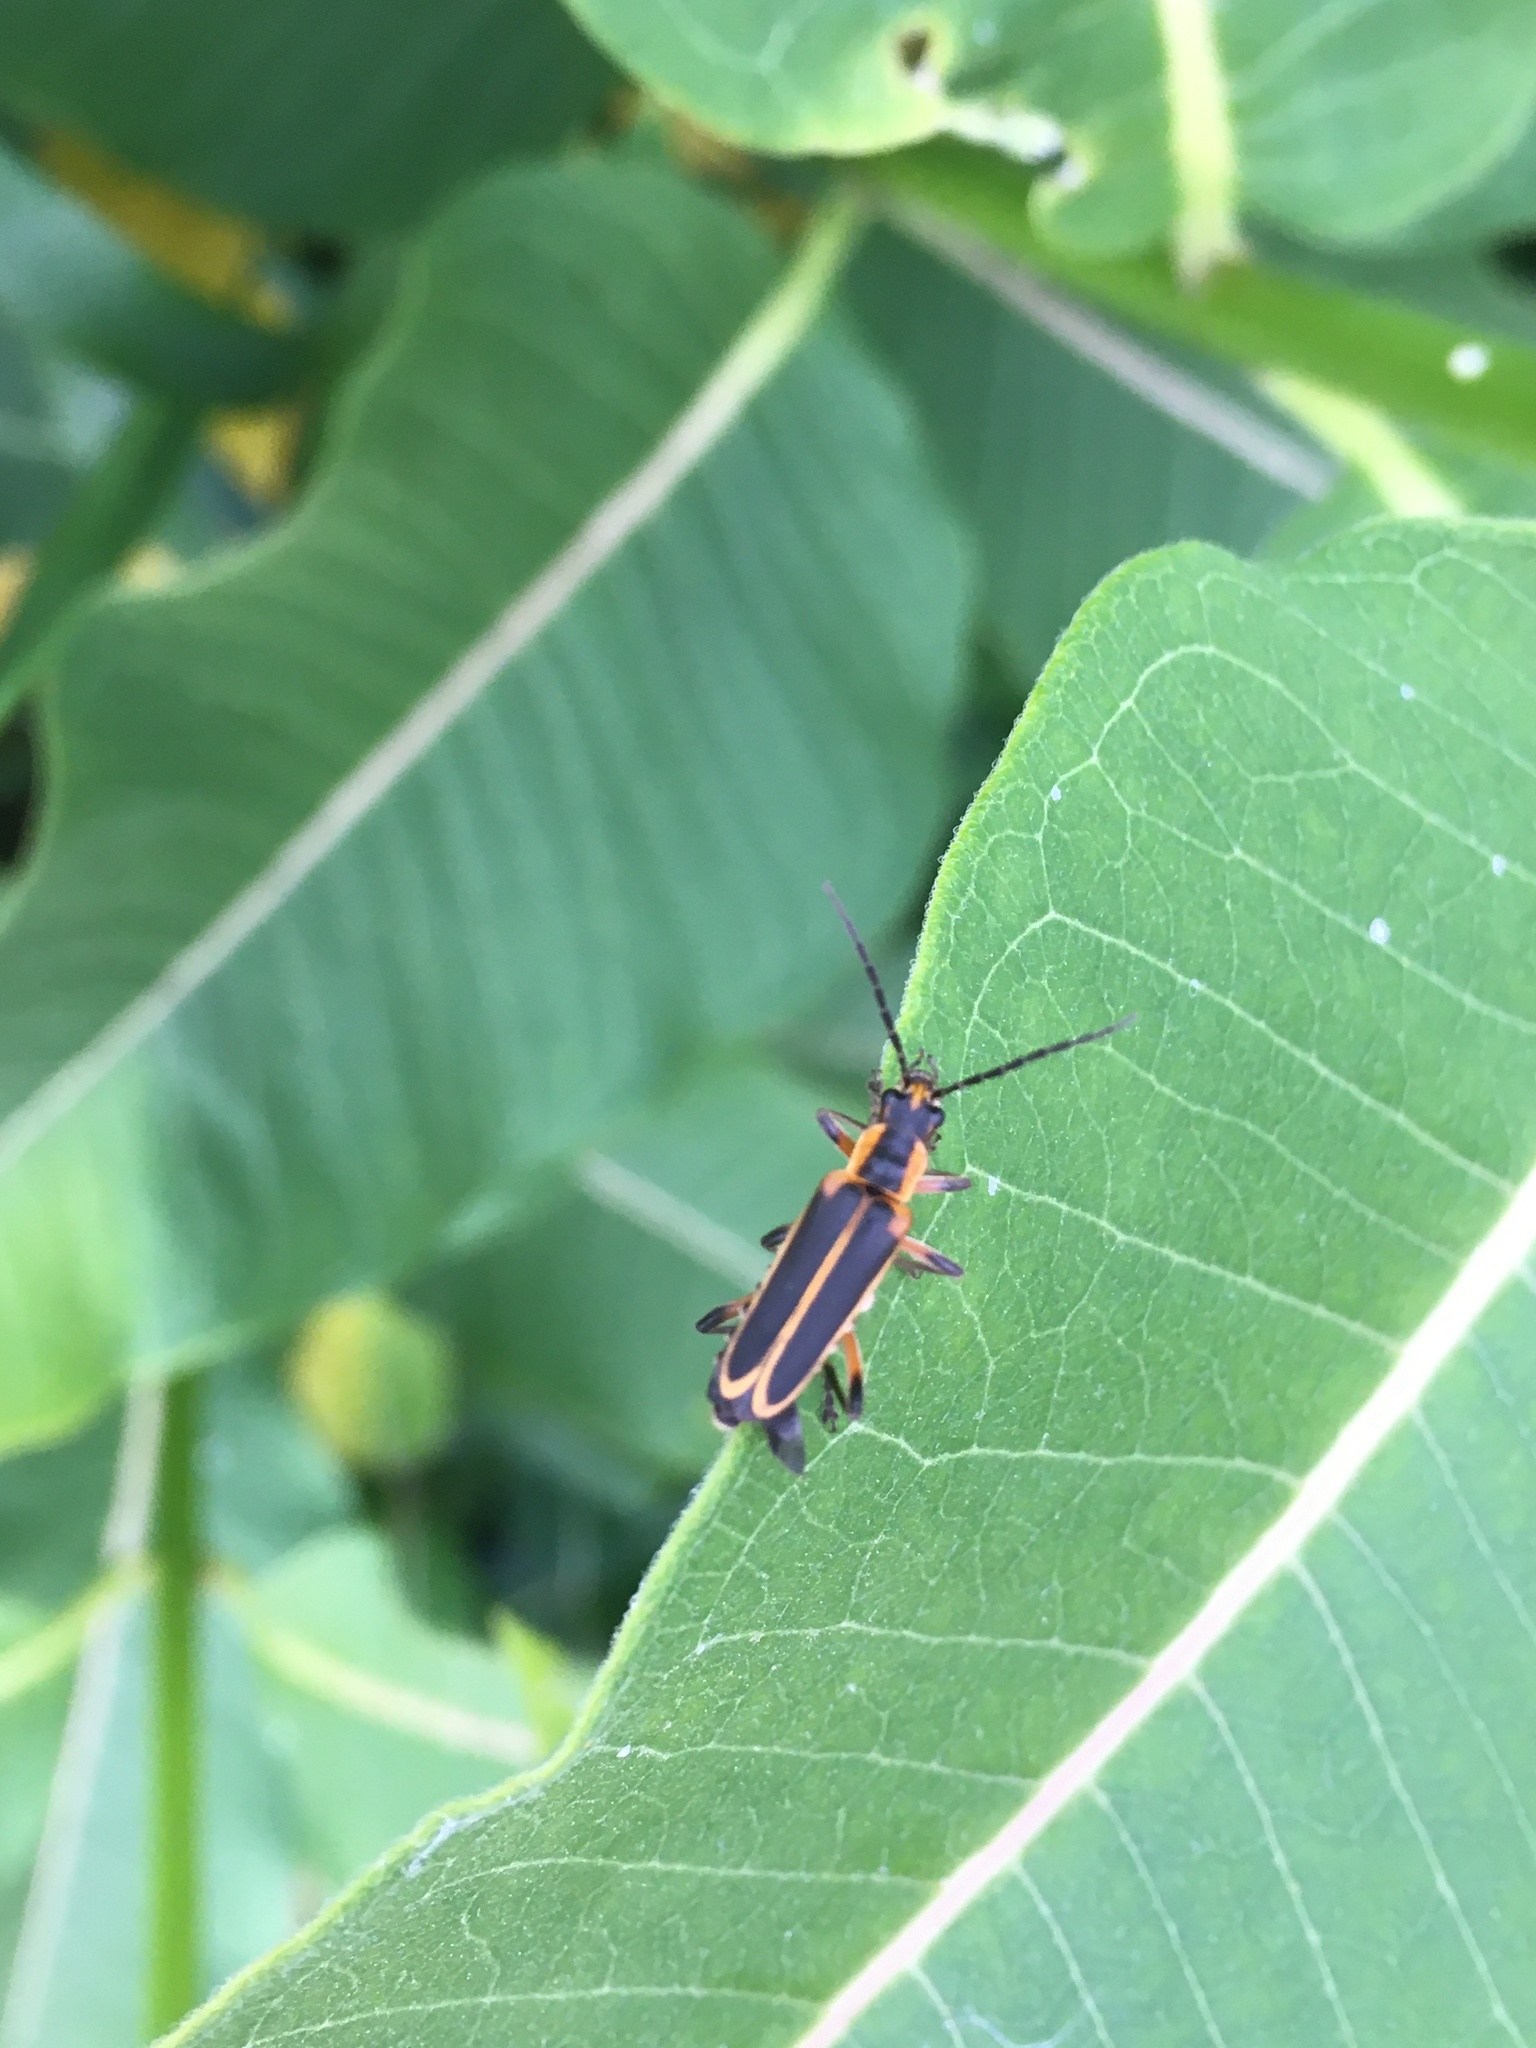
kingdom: Animalia
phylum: Arthropoda
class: Insecta
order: Coleoptera
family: Cantharidae
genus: Chauliognathus
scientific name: Chauliognathus marginatus
